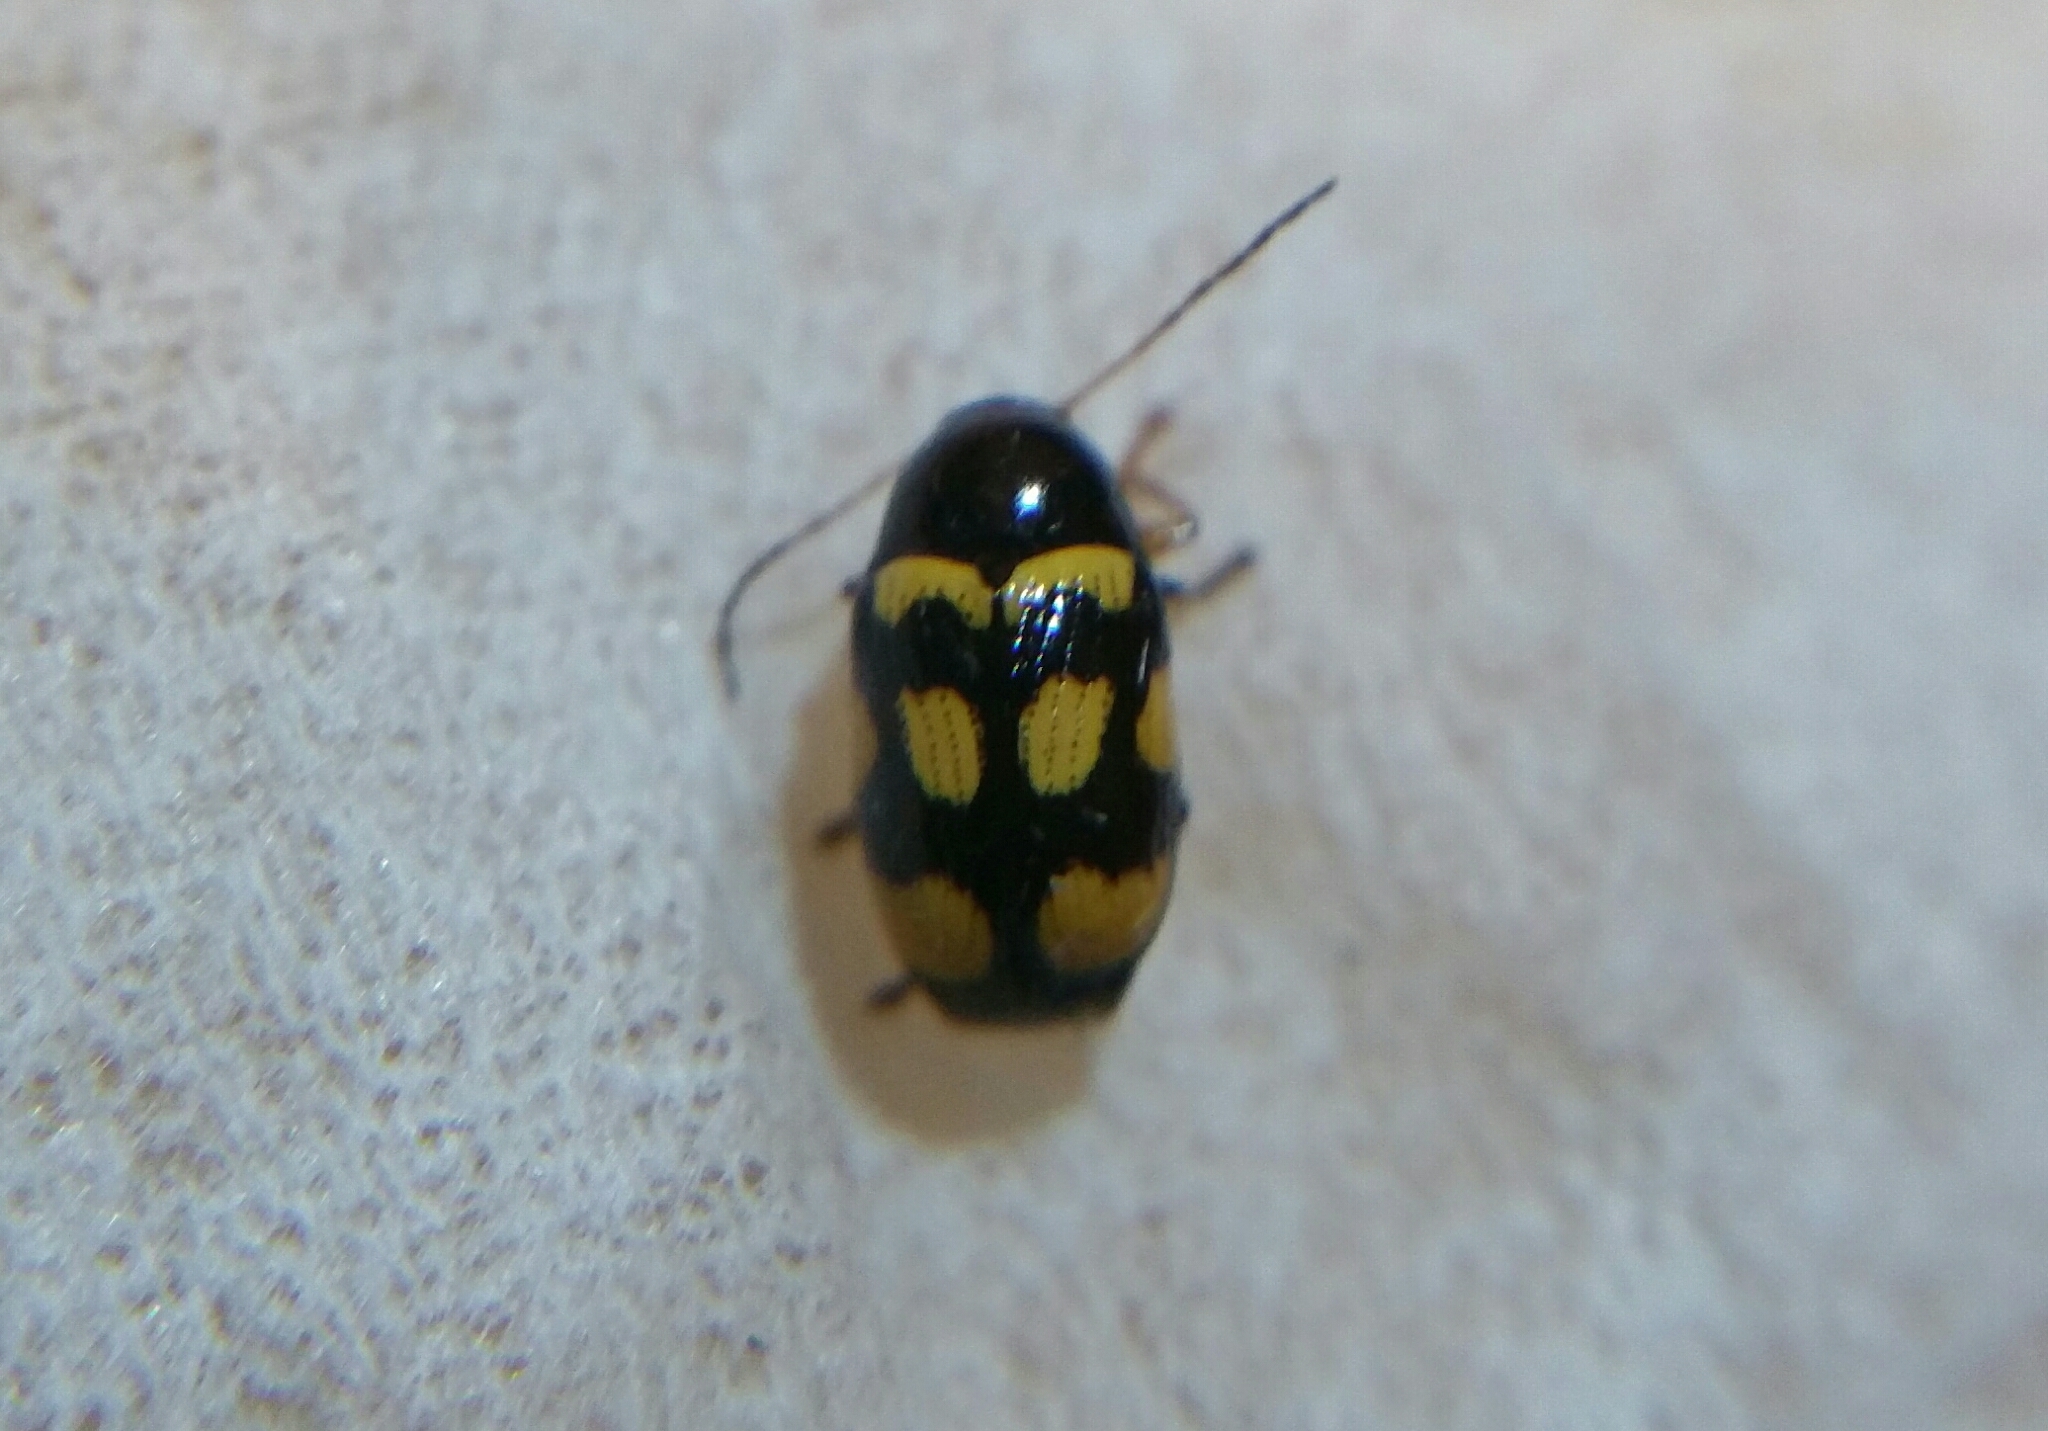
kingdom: Animalia
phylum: Arthropoda
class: Insecta
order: Coleoptera
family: Chrysomelidae
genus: Cryptocephalus
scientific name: Cryptocephalus anticus
